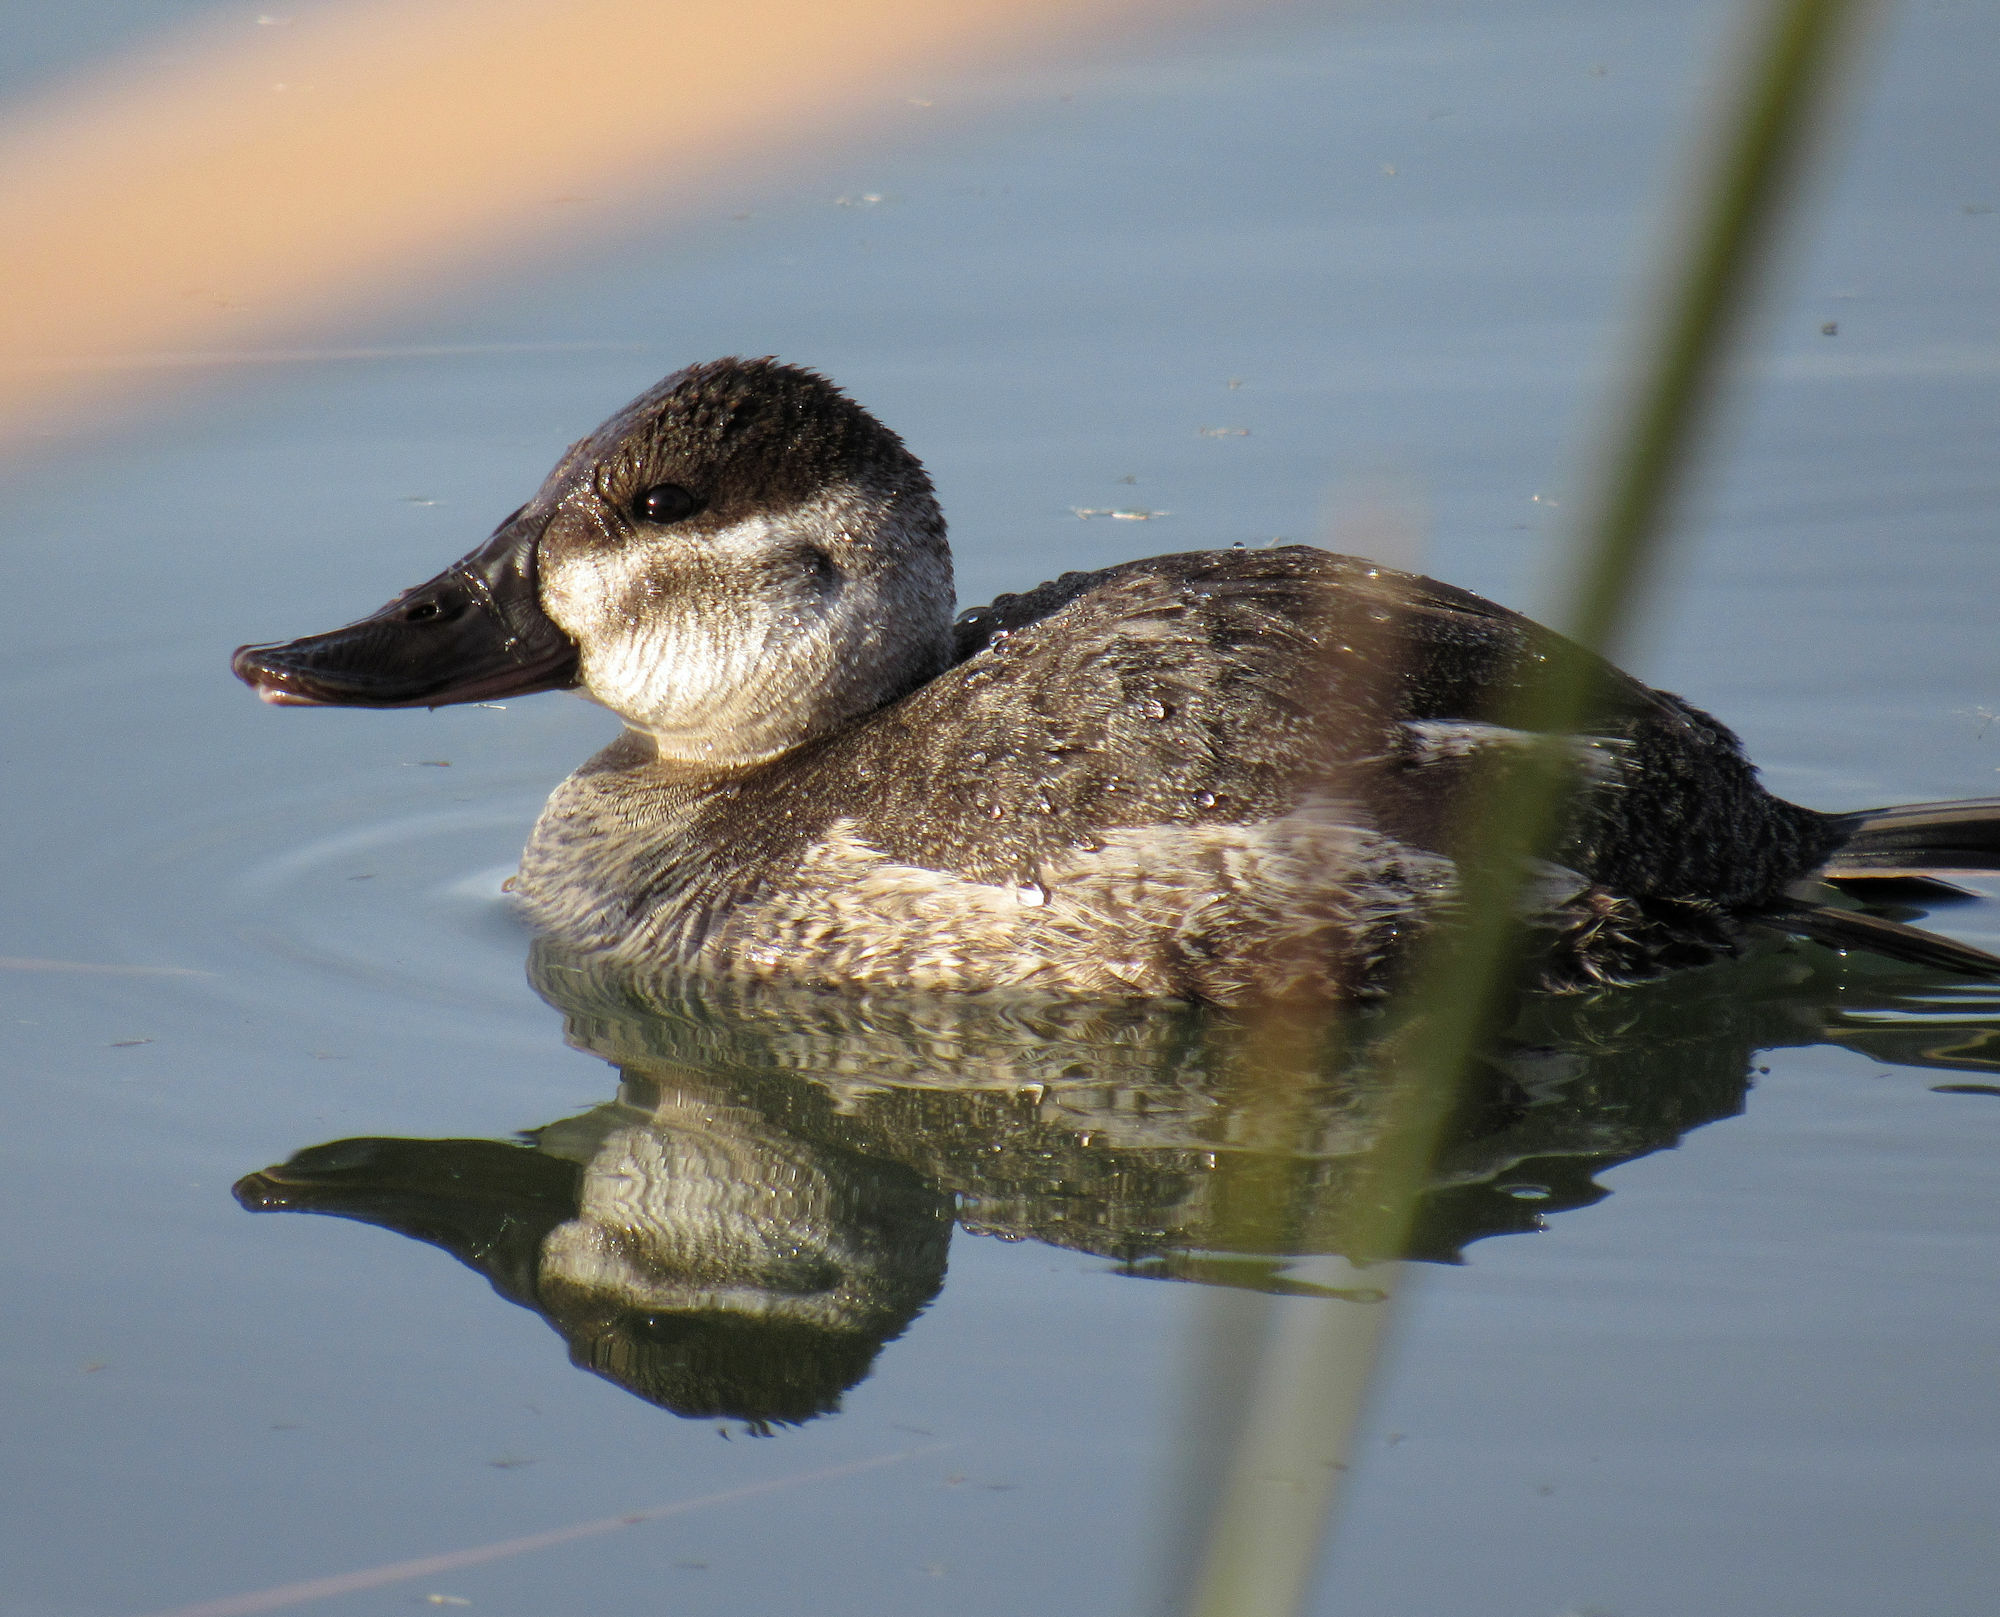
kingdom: Animalia
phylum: Chordata
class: Aves
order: Anseriformes
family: Anatidae
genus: Oxyura
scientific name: Oxyura jamaicensis
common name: Ruddy duck
